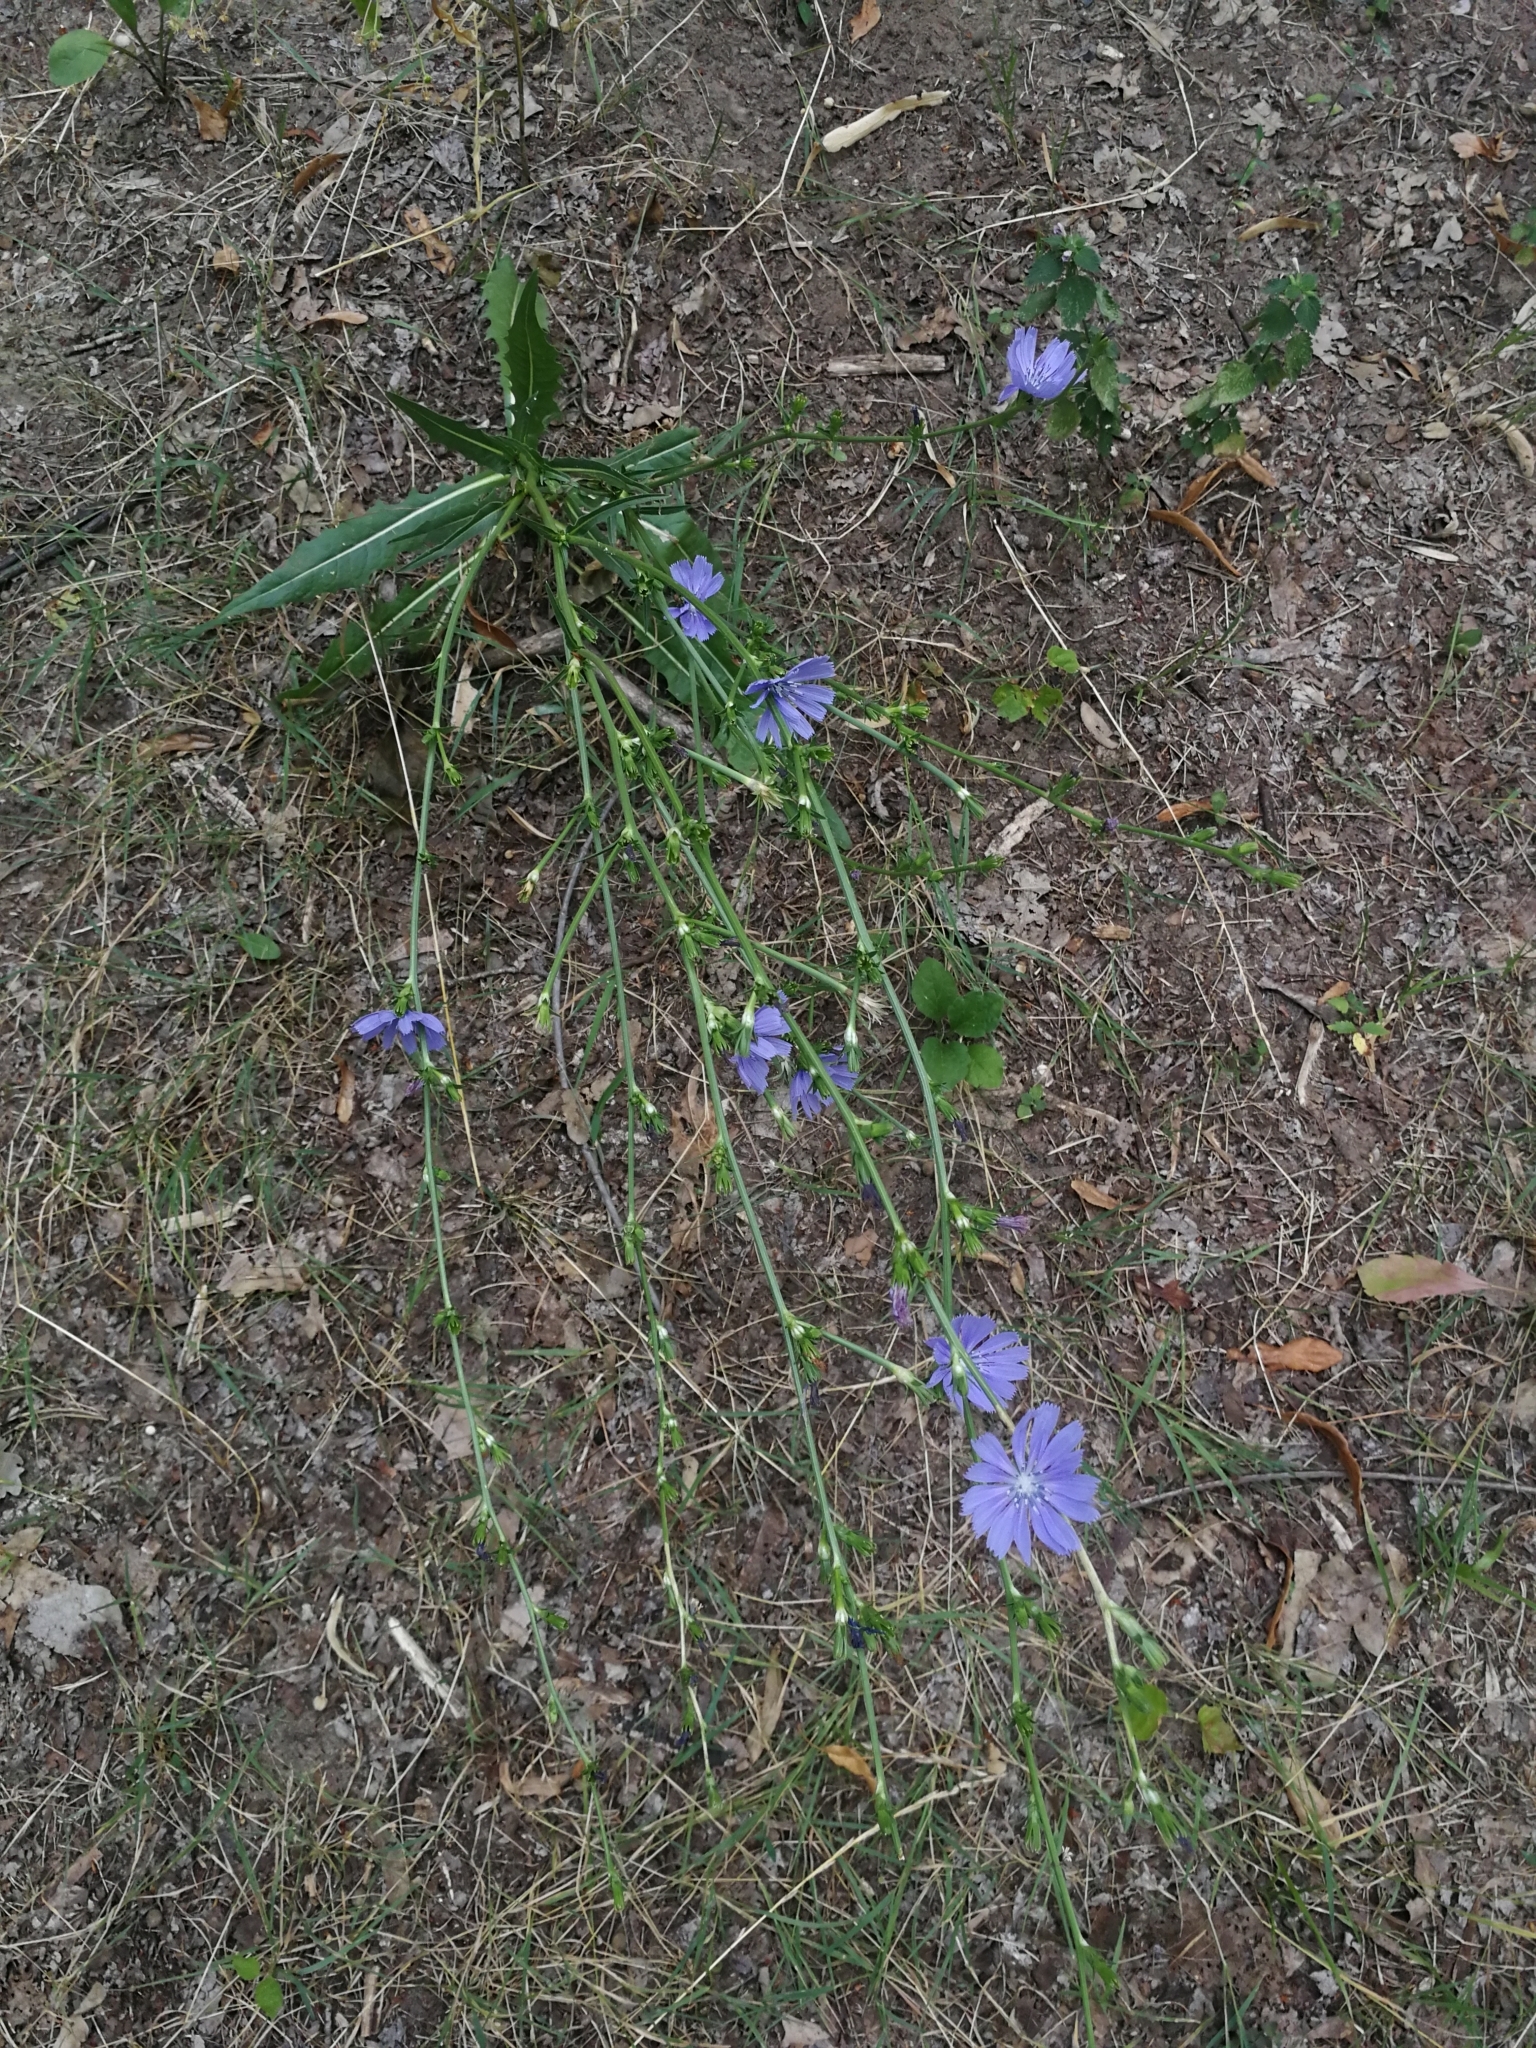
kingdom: Plantae
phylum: Tracheophyta
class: Magnoliopsida
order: Asterales
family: Asteraceae
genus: Cichorium
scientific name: Cichorium intybus
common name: Chicory
